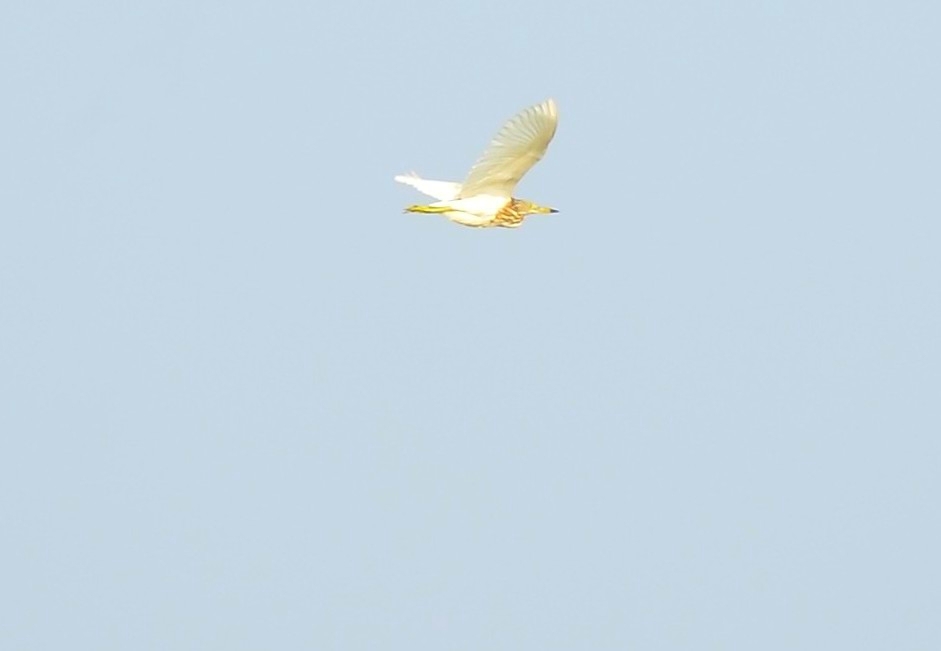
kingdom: Animalia
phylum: Chordata
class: Aves
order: Pelecaniformes
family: Ardeidae
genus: Ardeola
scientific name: Ardeola grayii
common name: Indian pond heron
